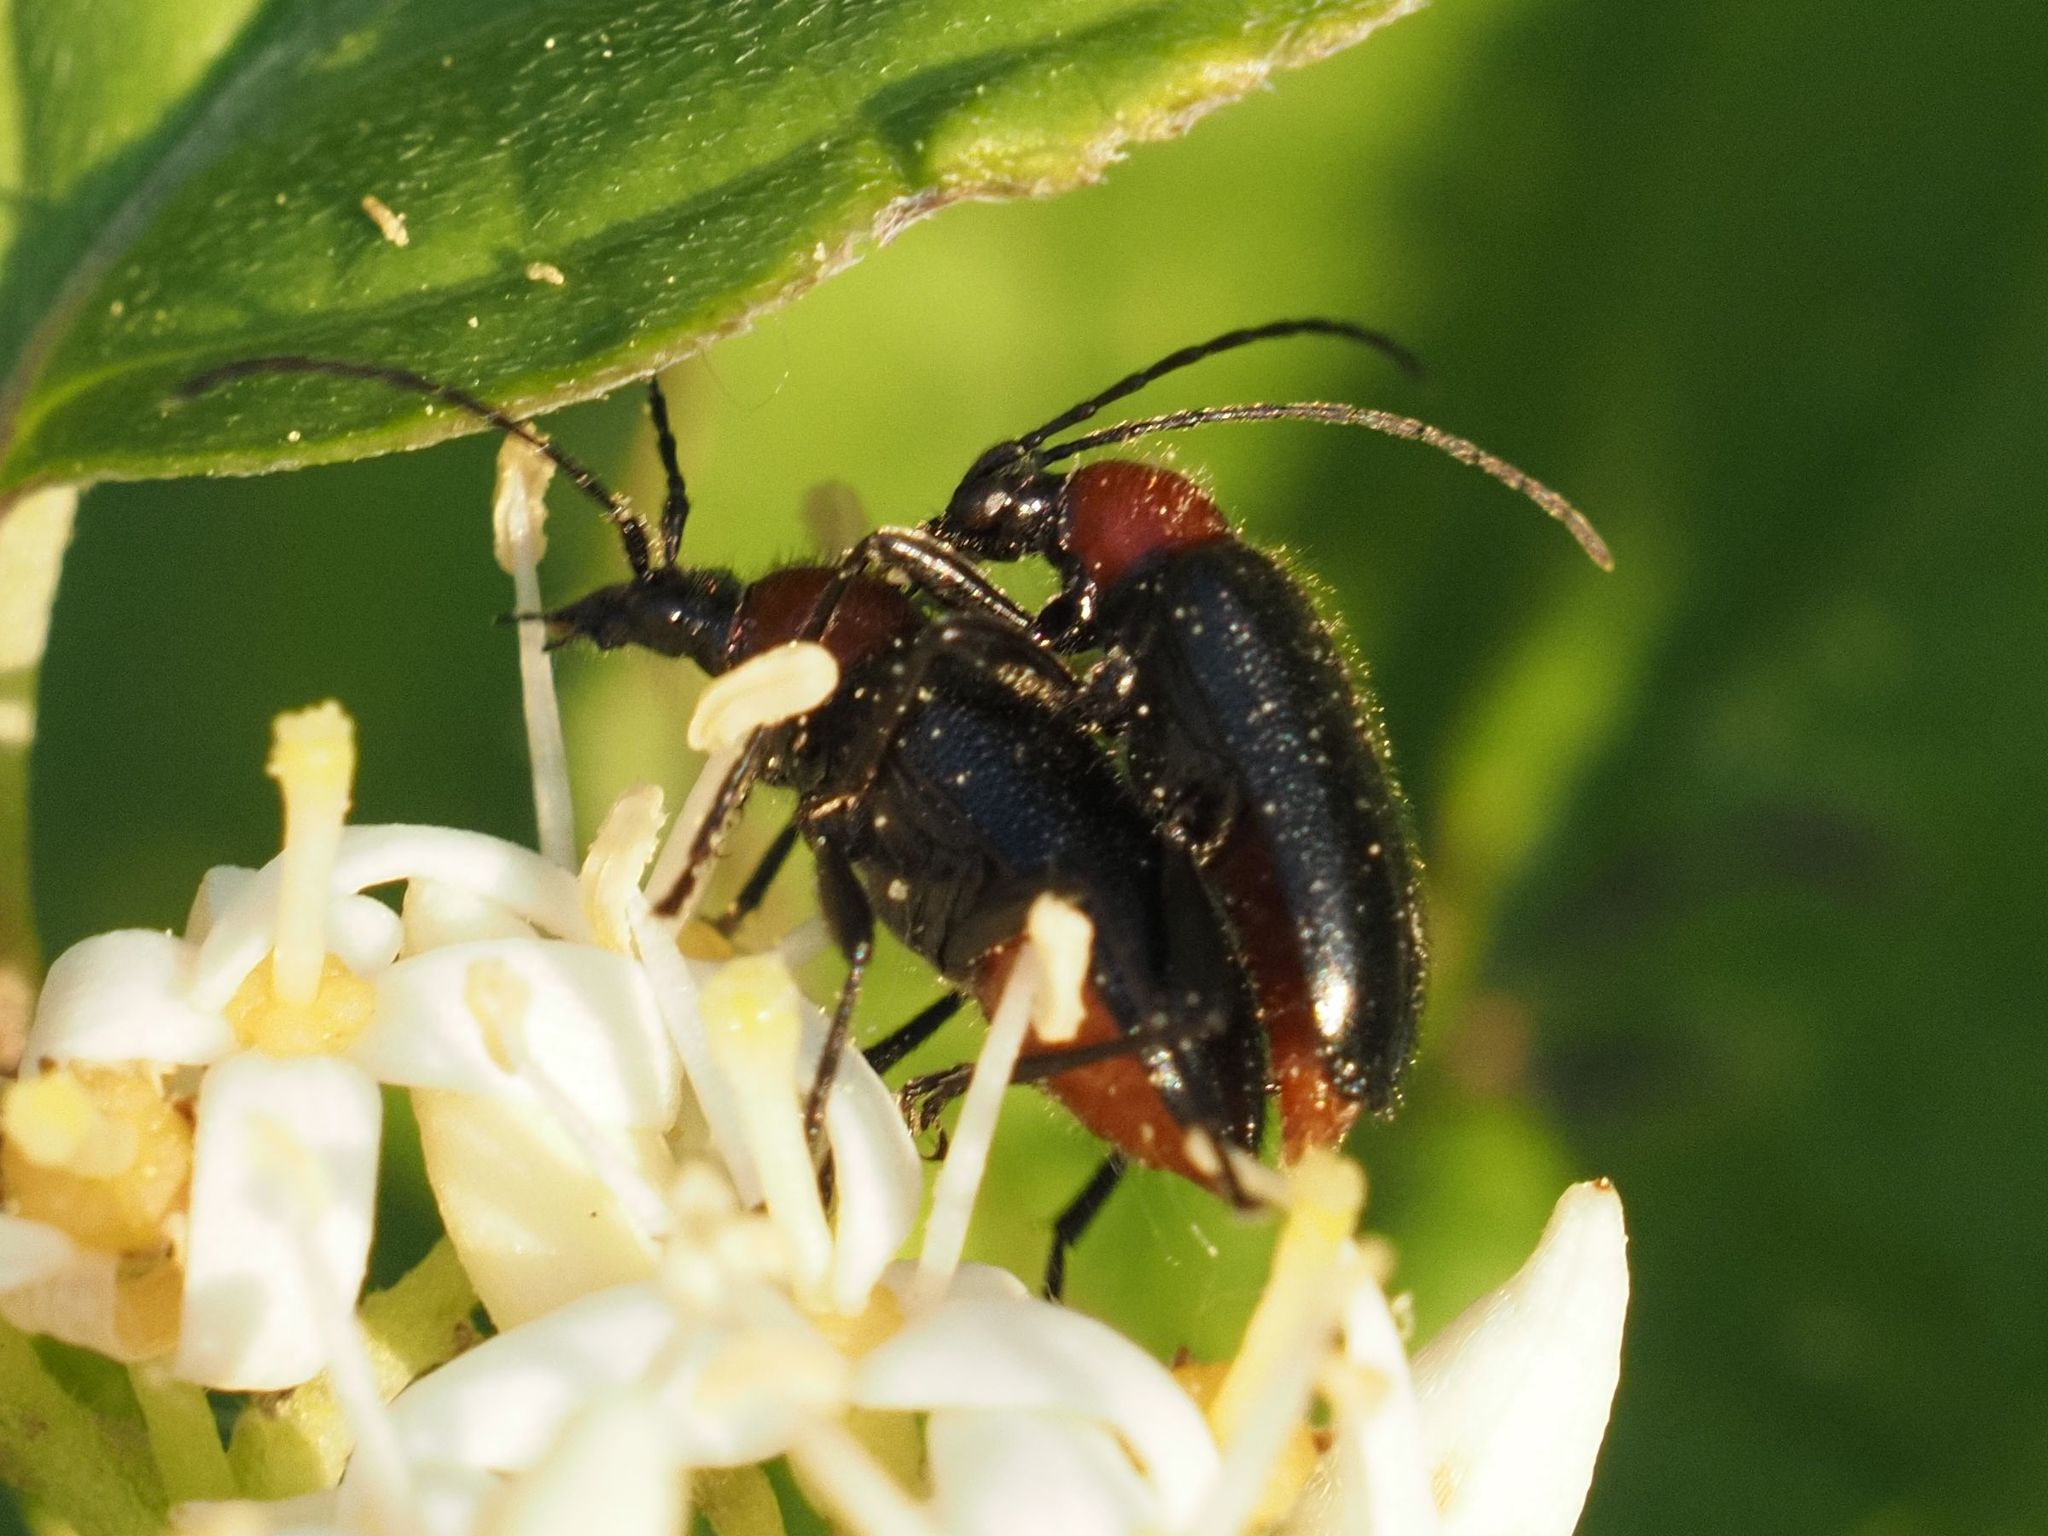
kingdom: Animalia
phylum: Arthropoda
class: Insecta
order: Coleoptera
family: Cerambycidae
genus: Dinoptera
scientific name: Dinoptera collaris
